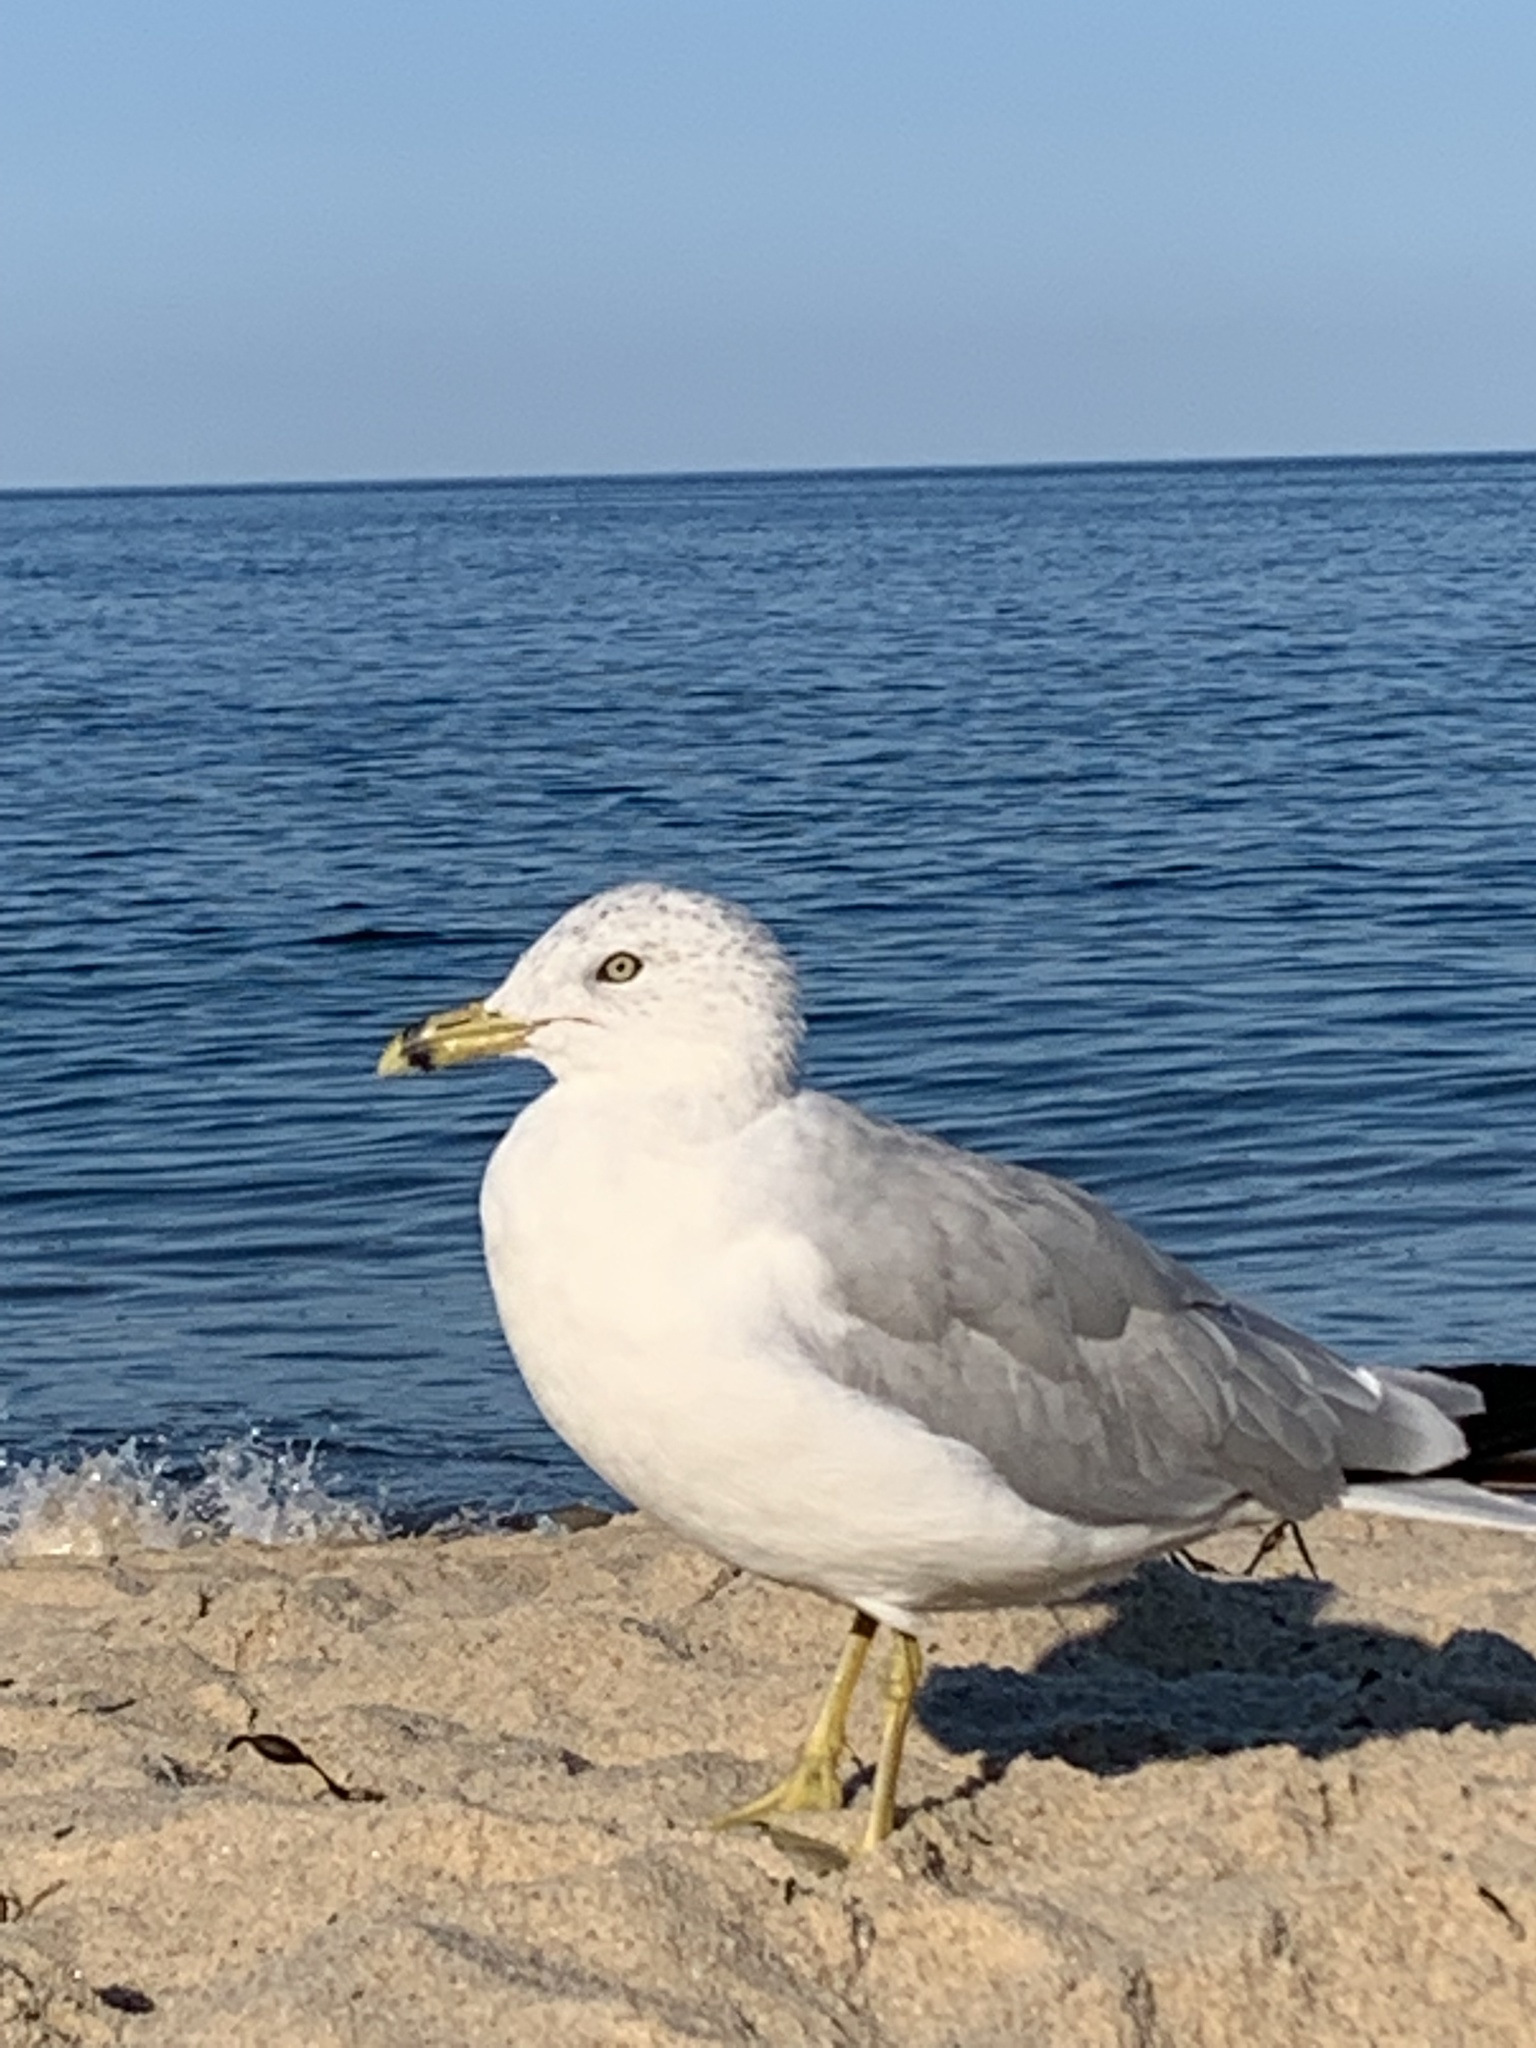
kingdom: Animalia
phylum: Chordata
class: Aves
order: Charadriiformes
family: Laridae
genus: Larus
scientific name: Larus delawarensis
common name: Ring-billed gull
